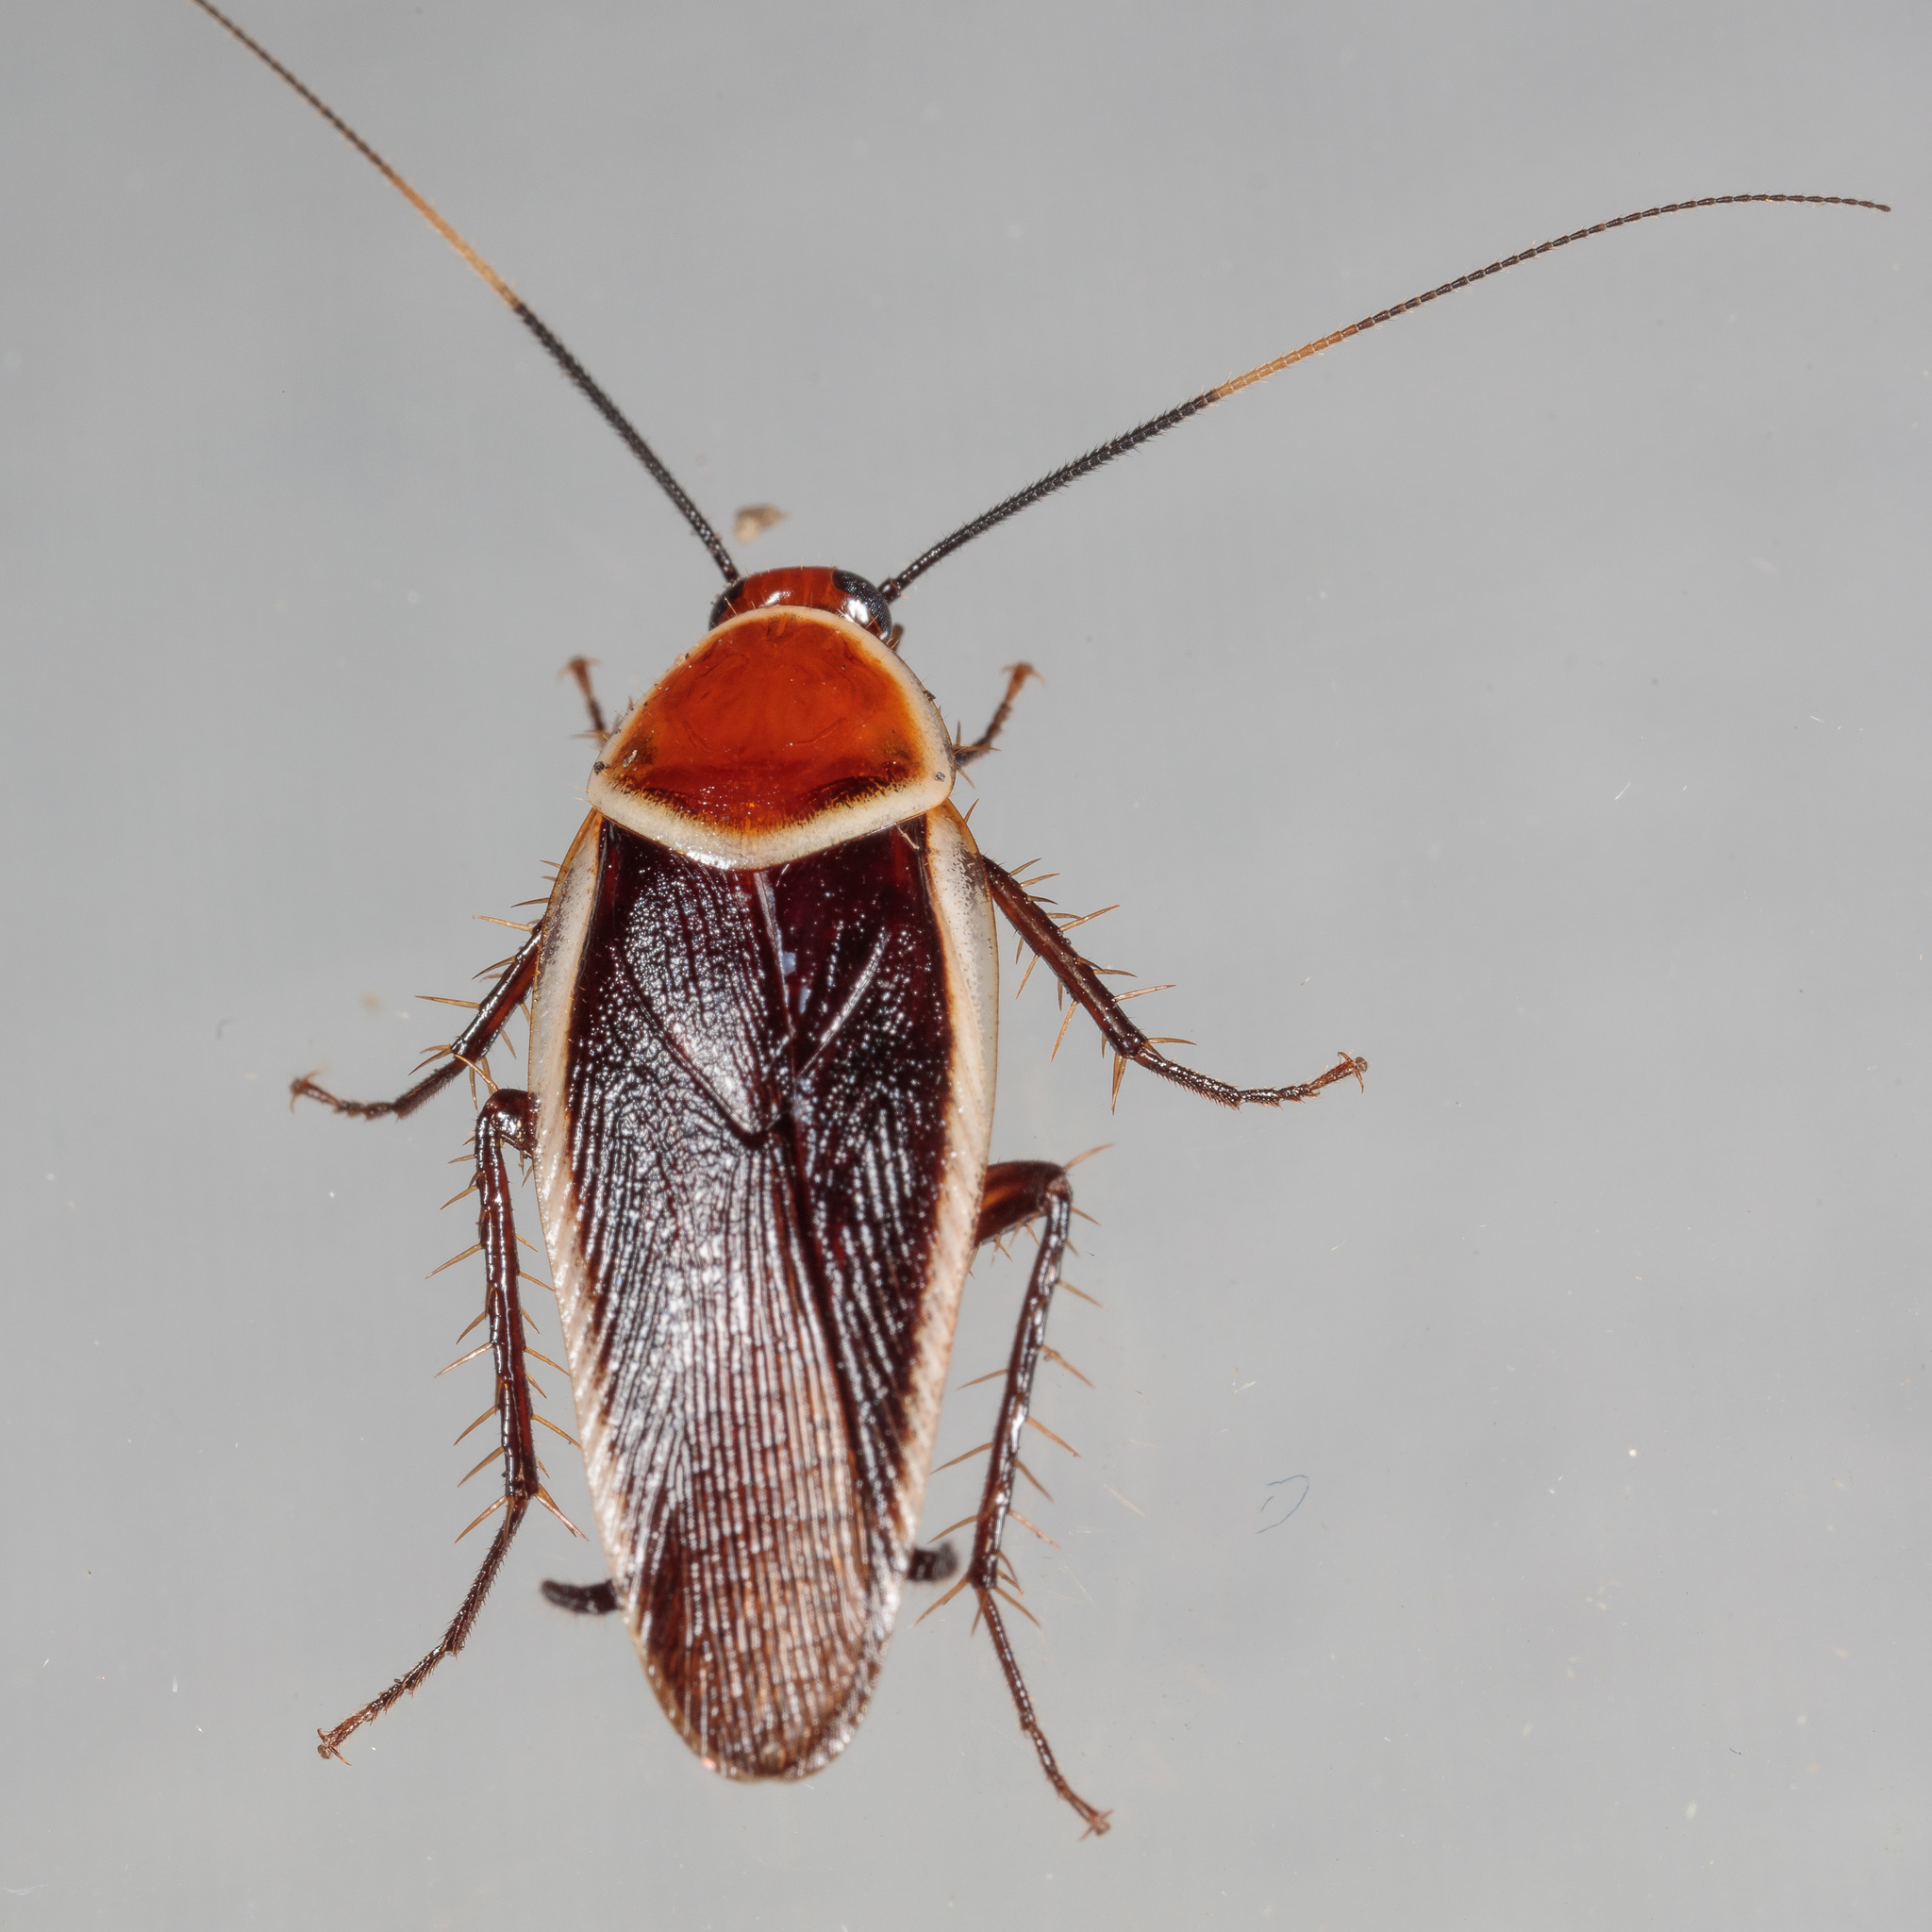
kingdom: Animalia
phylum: Arthropoda
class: Insecta
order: Blattodea
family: Ectobiidae
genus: Pseudomops
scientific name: Pseudomops septentrionalis
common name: Pale-bordered field cockroach
